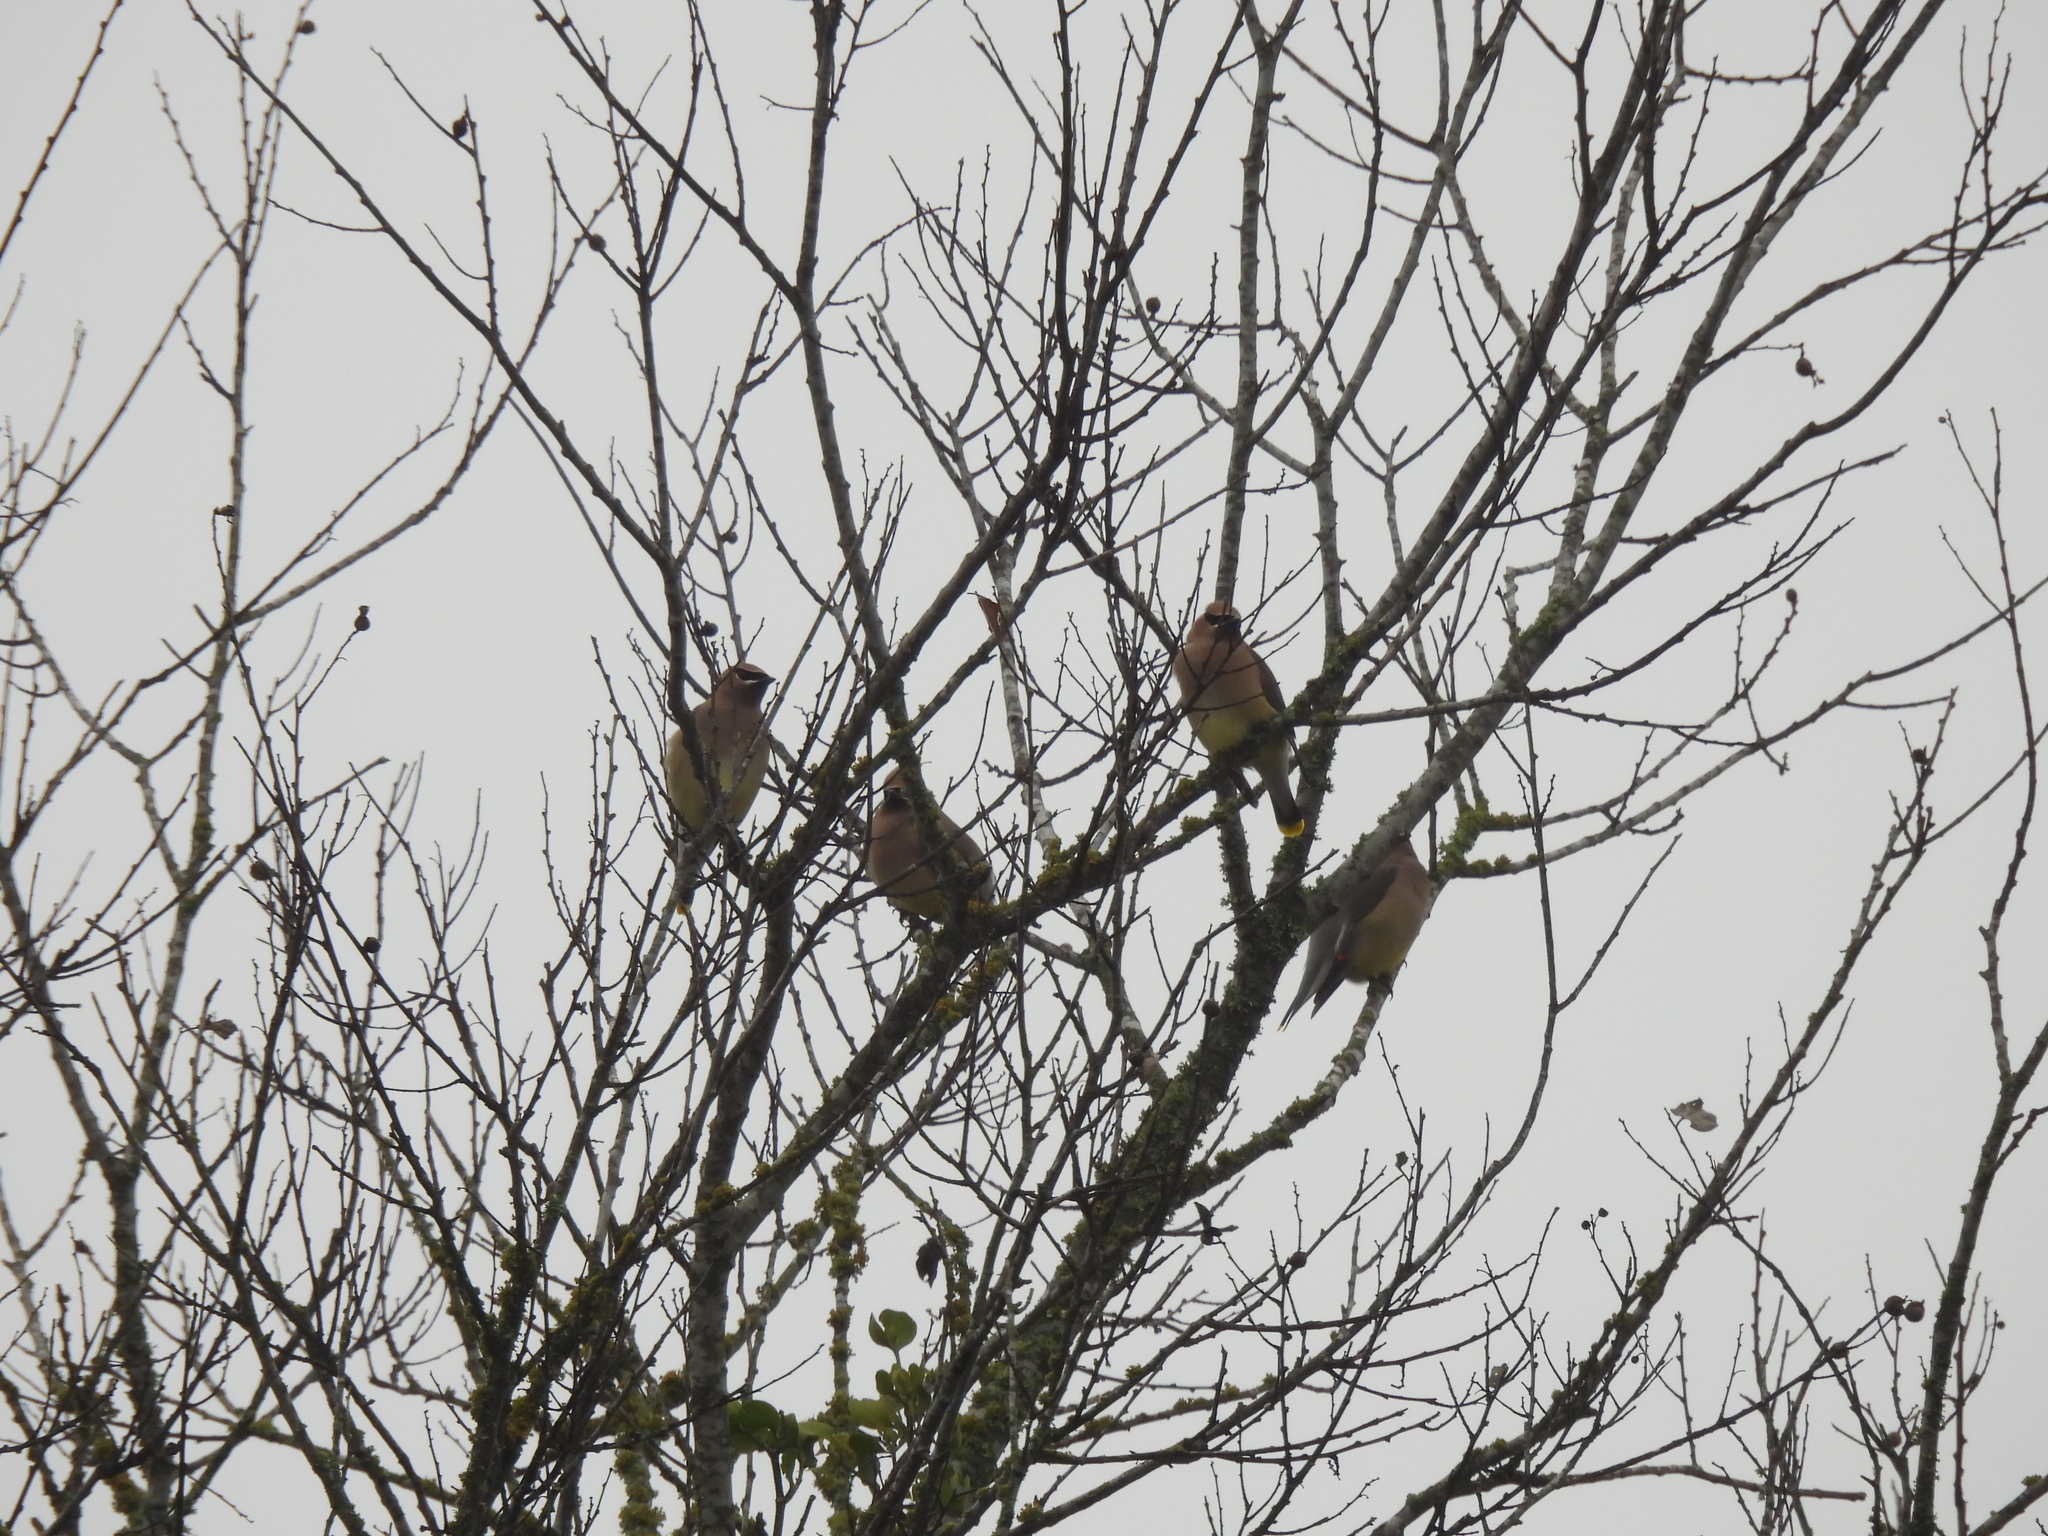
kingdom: Animalia
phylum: Chordata
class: Aves
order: Passeriformes
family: Bombycillidae
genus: Bombycilla
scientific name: Bombycilla cedrorum
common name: Cedar waxwing
